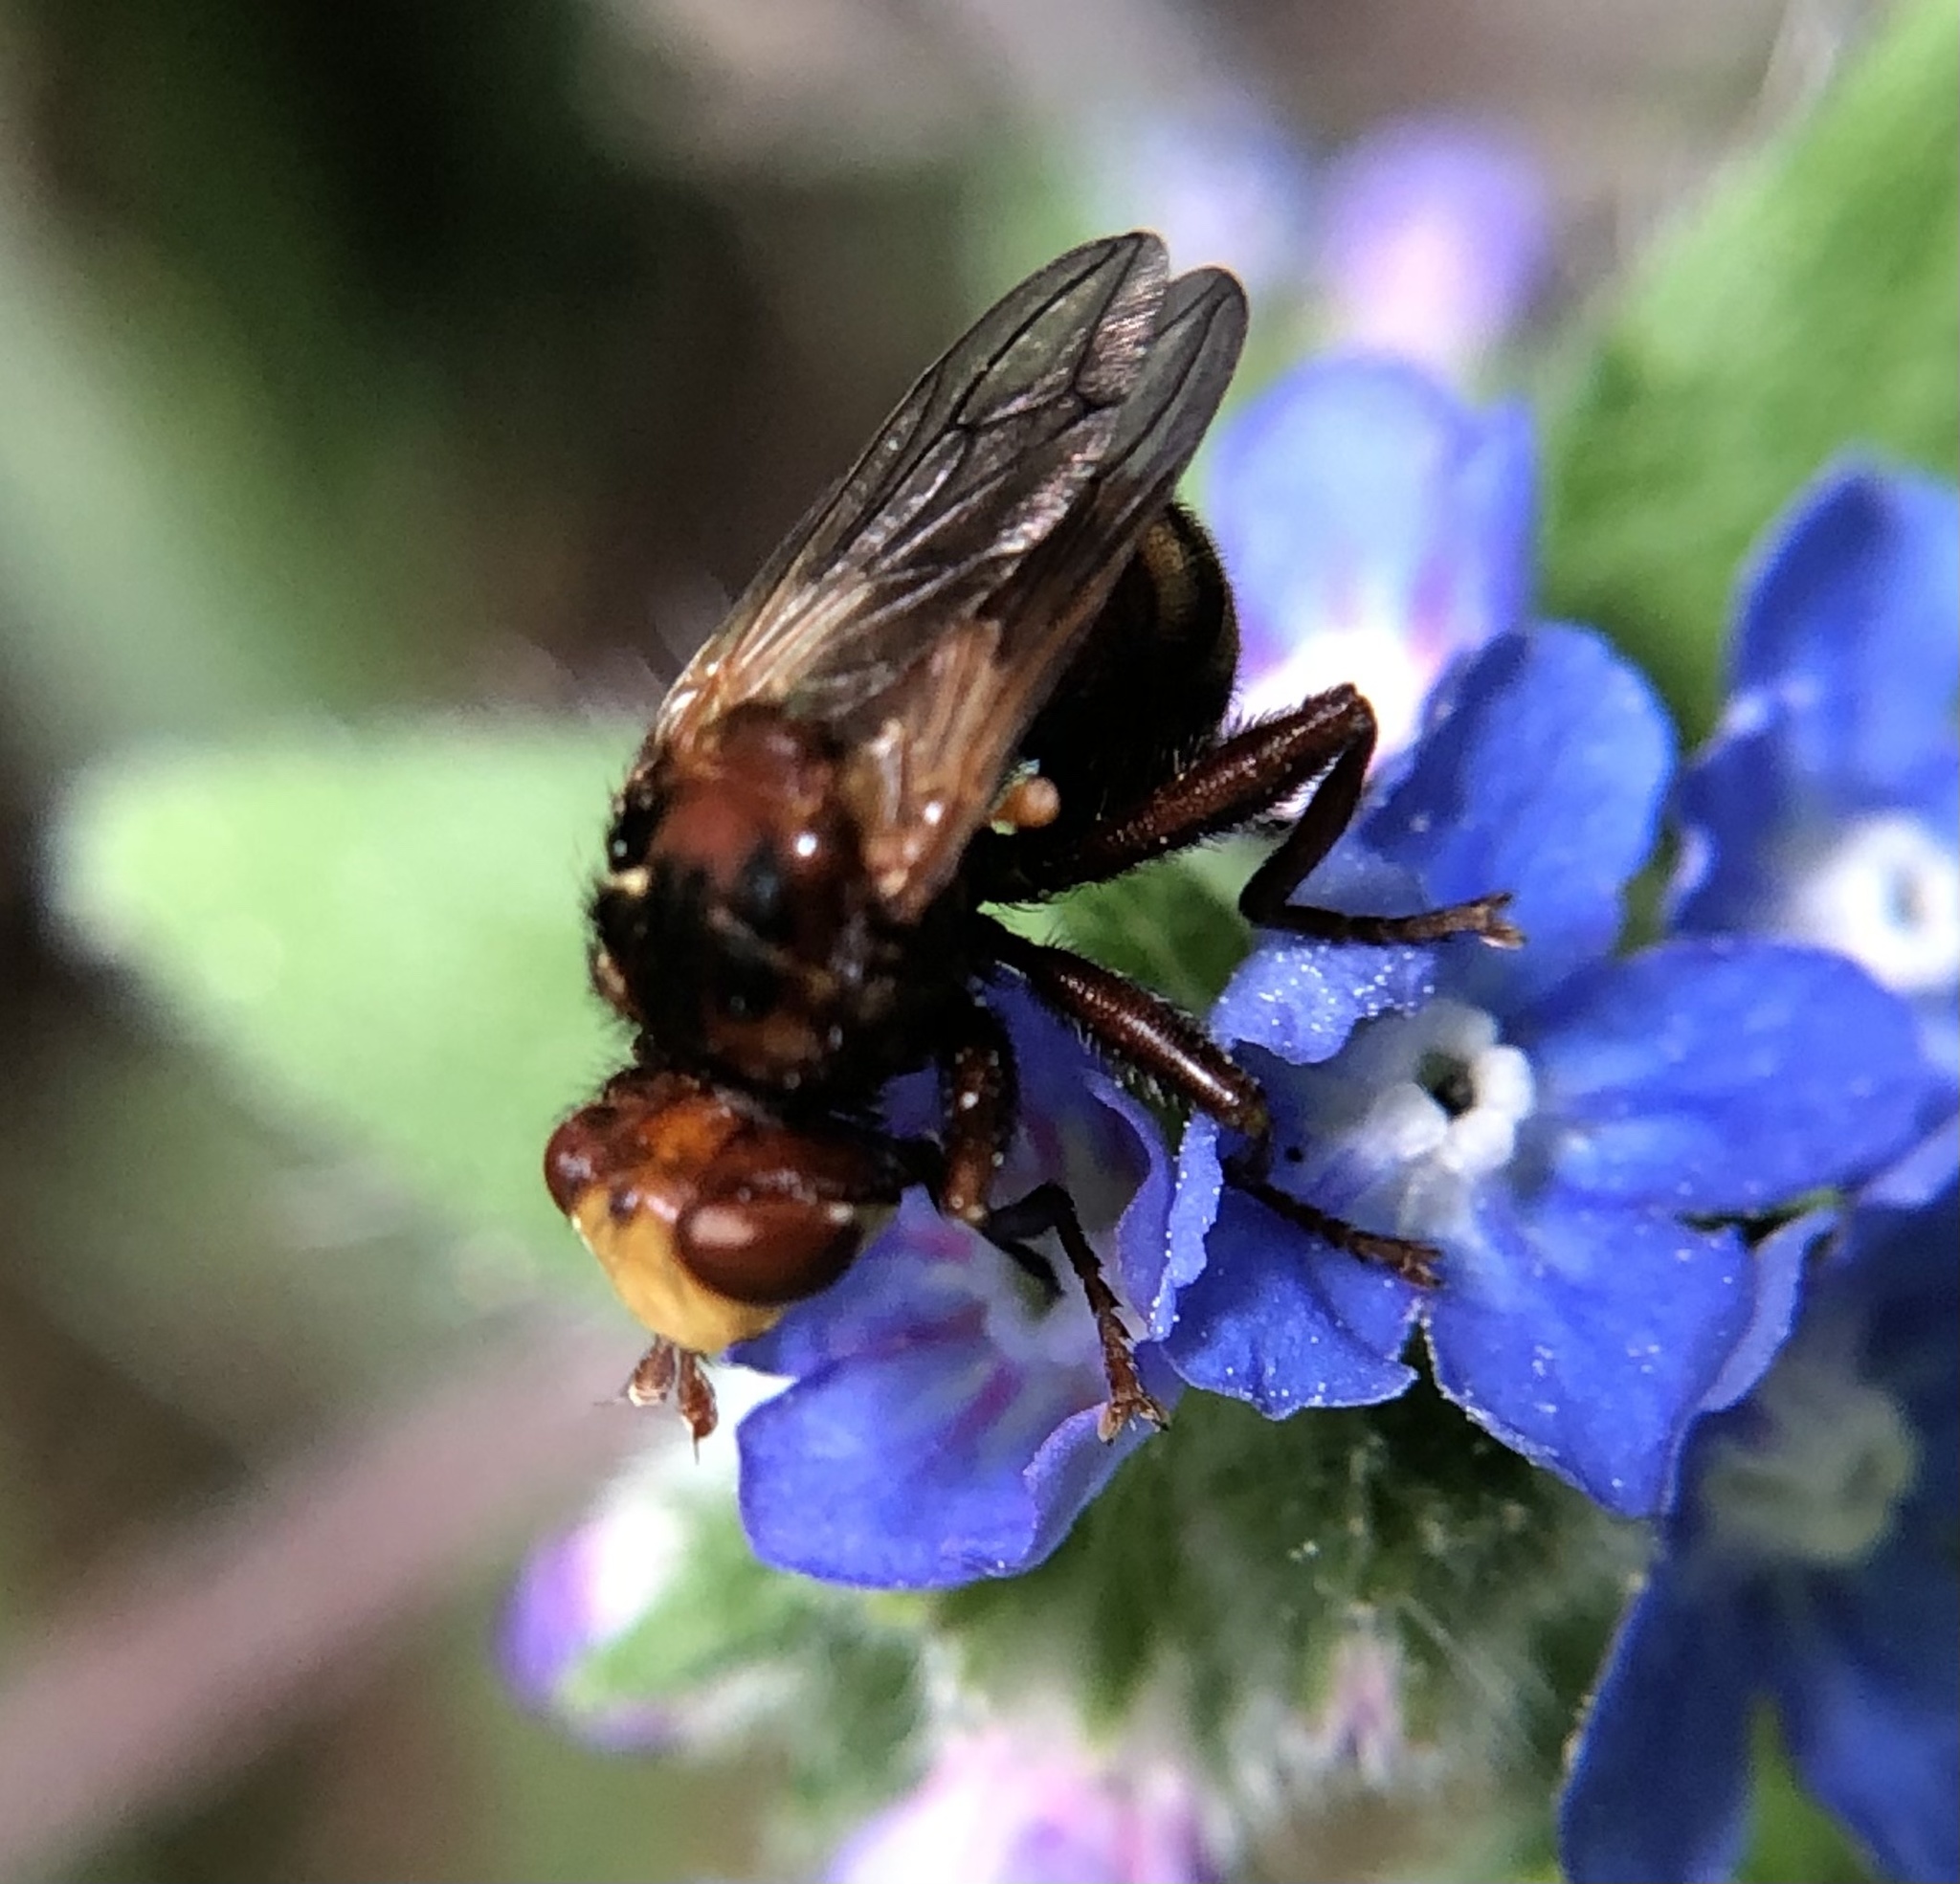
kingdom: Animalia
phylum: Arthropoda
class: Insecta
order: Diptera
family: Conopidae
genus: Sicus
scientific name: Sicus ferrugineus
